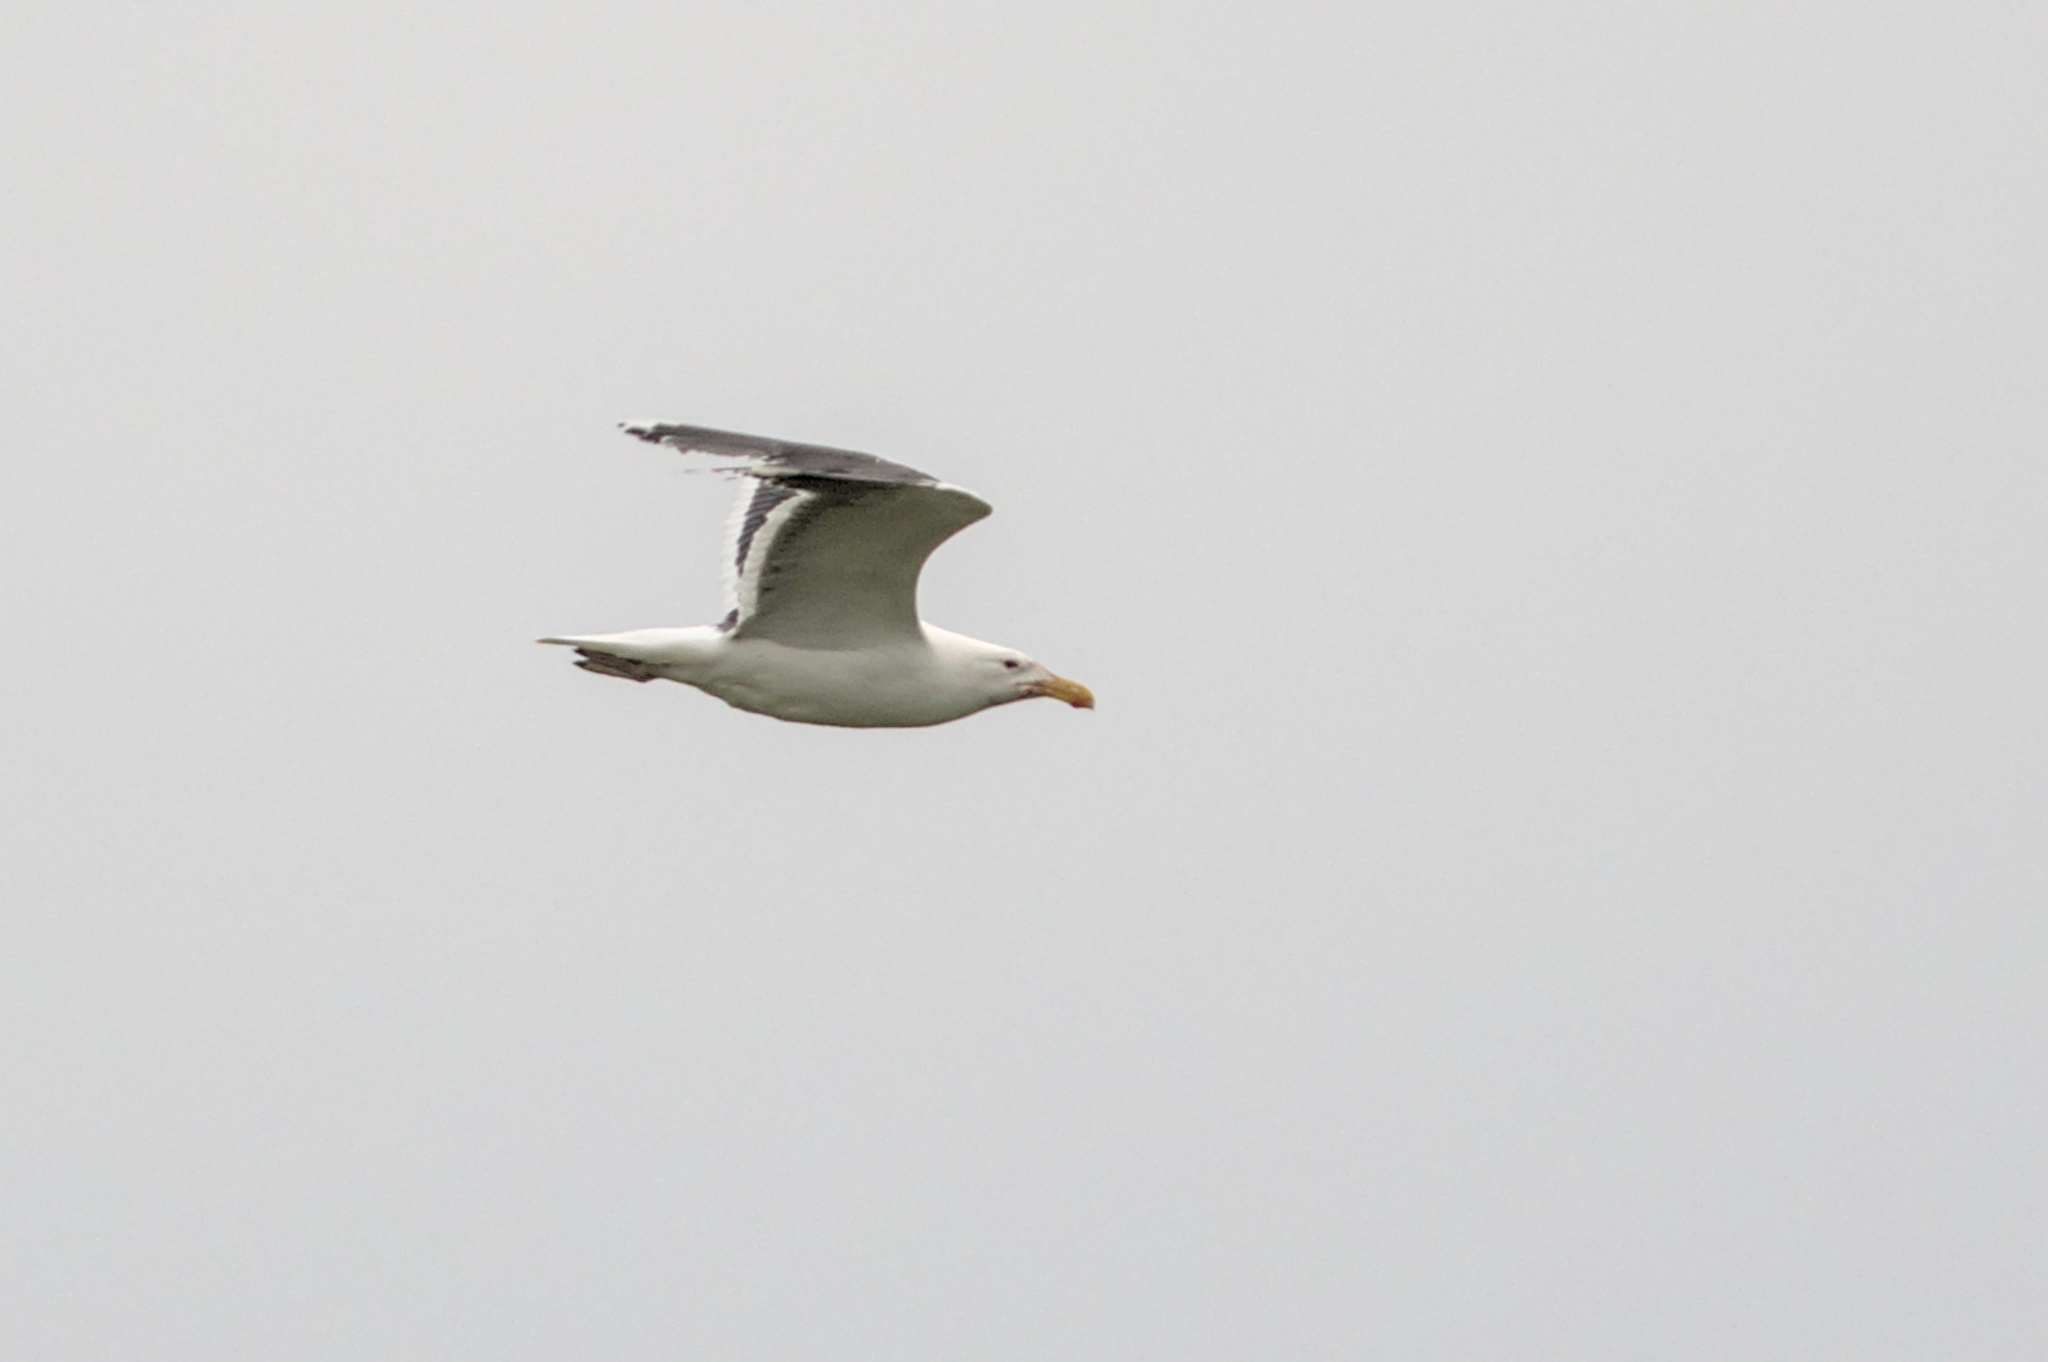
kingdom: Animalia
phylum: Chordata
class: Aves
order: Charadriiformes
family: Laridae
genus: Larus
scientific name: Larus marinus
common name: Great black-backed gull
